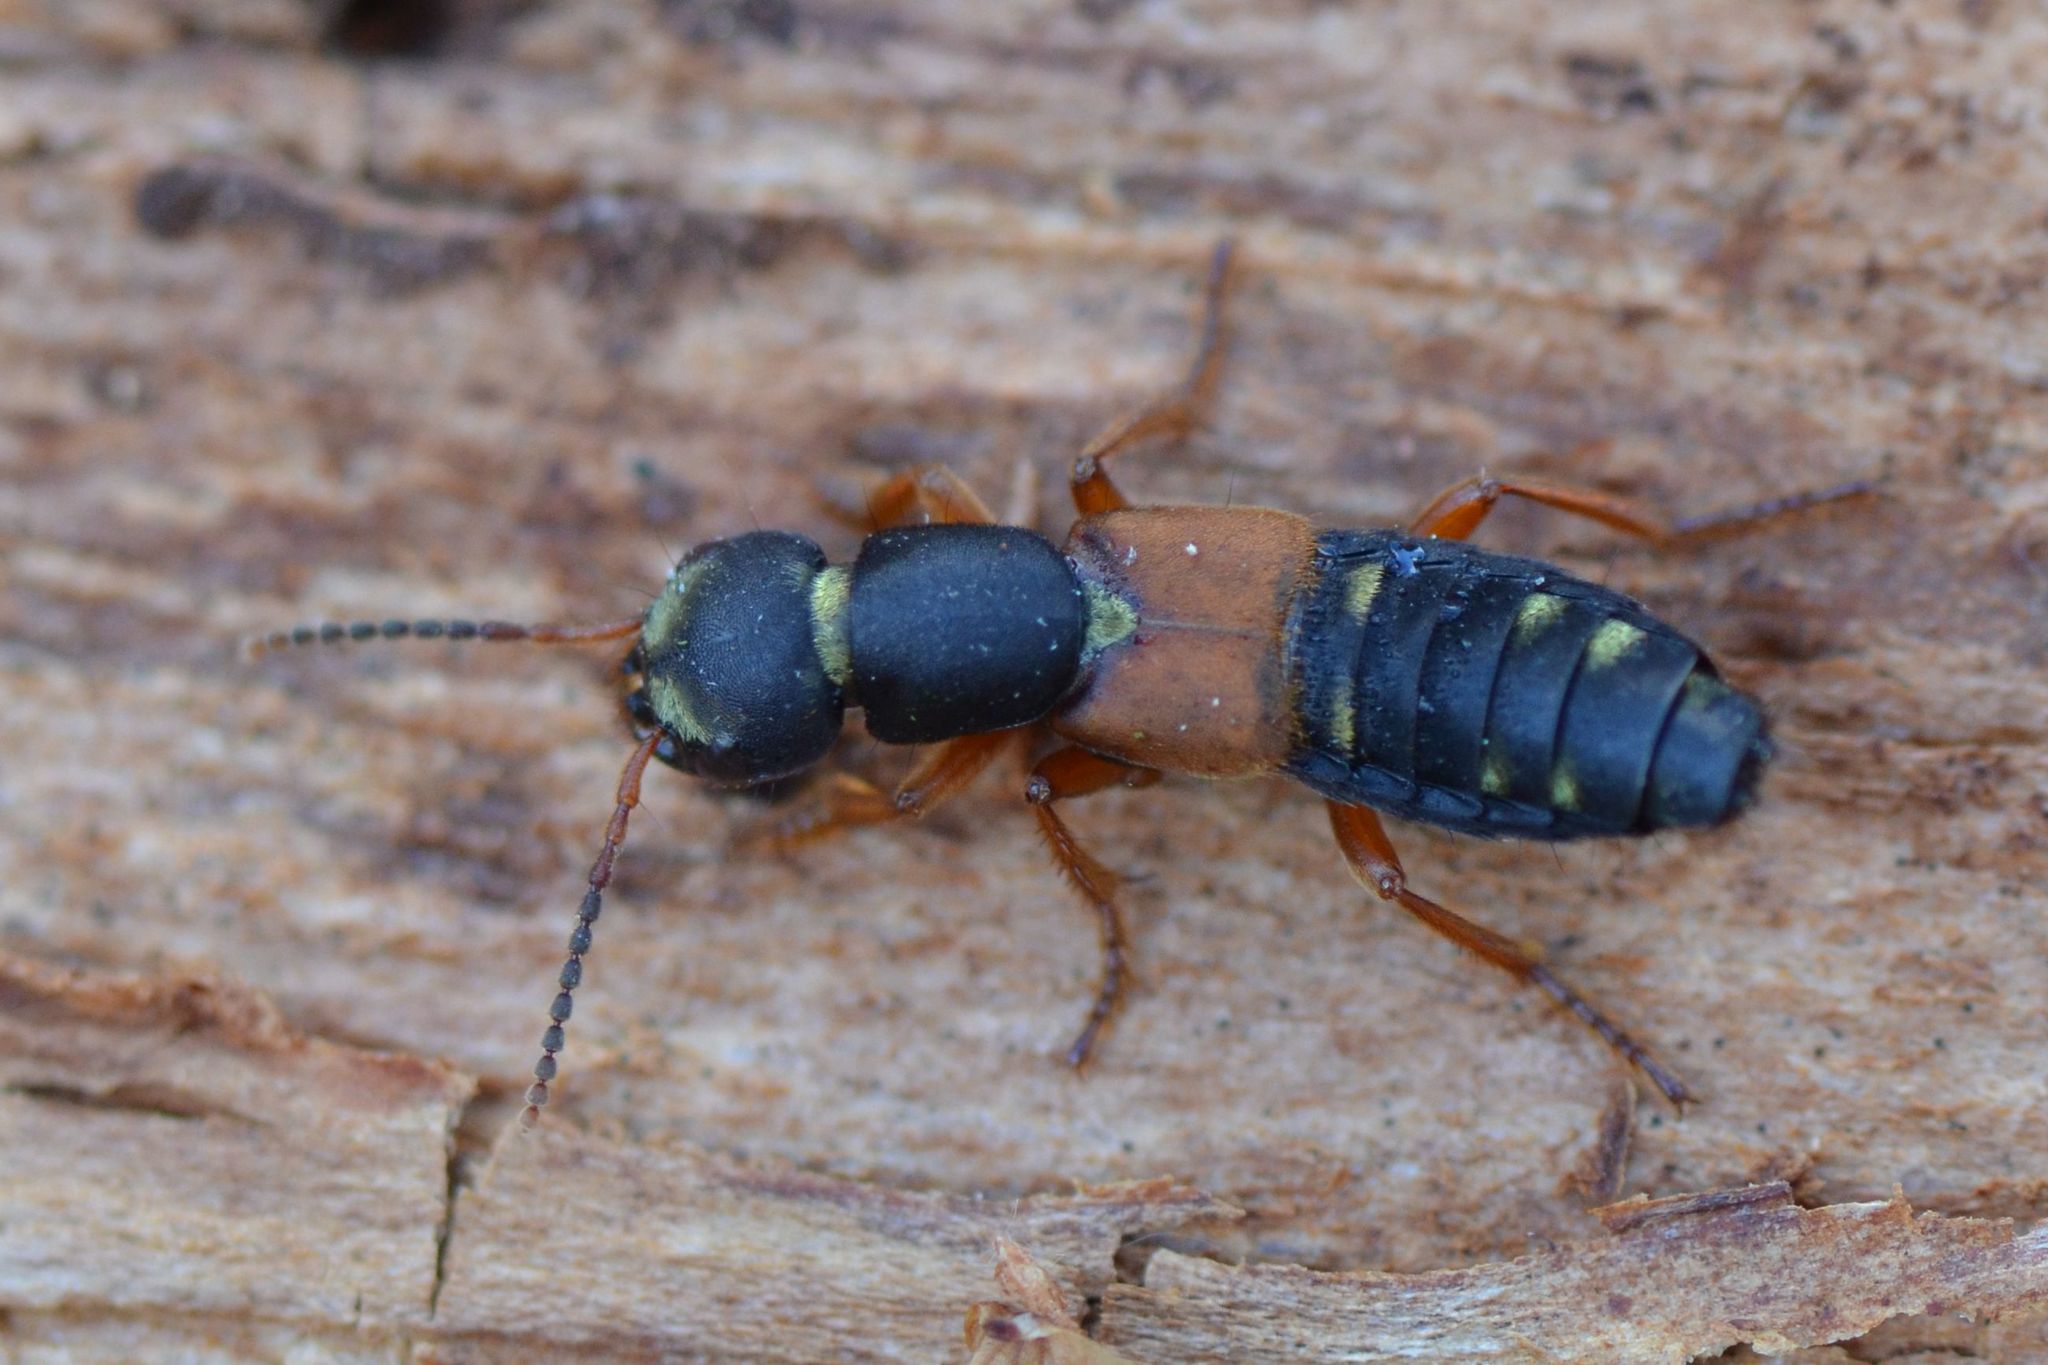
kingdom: Animalia
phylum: Arthropoda
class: Insecta
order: Coleoptera
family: Staphylinidae
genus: Staphylinus
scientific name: Staphylinus erythropterus
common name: Staph beetle
